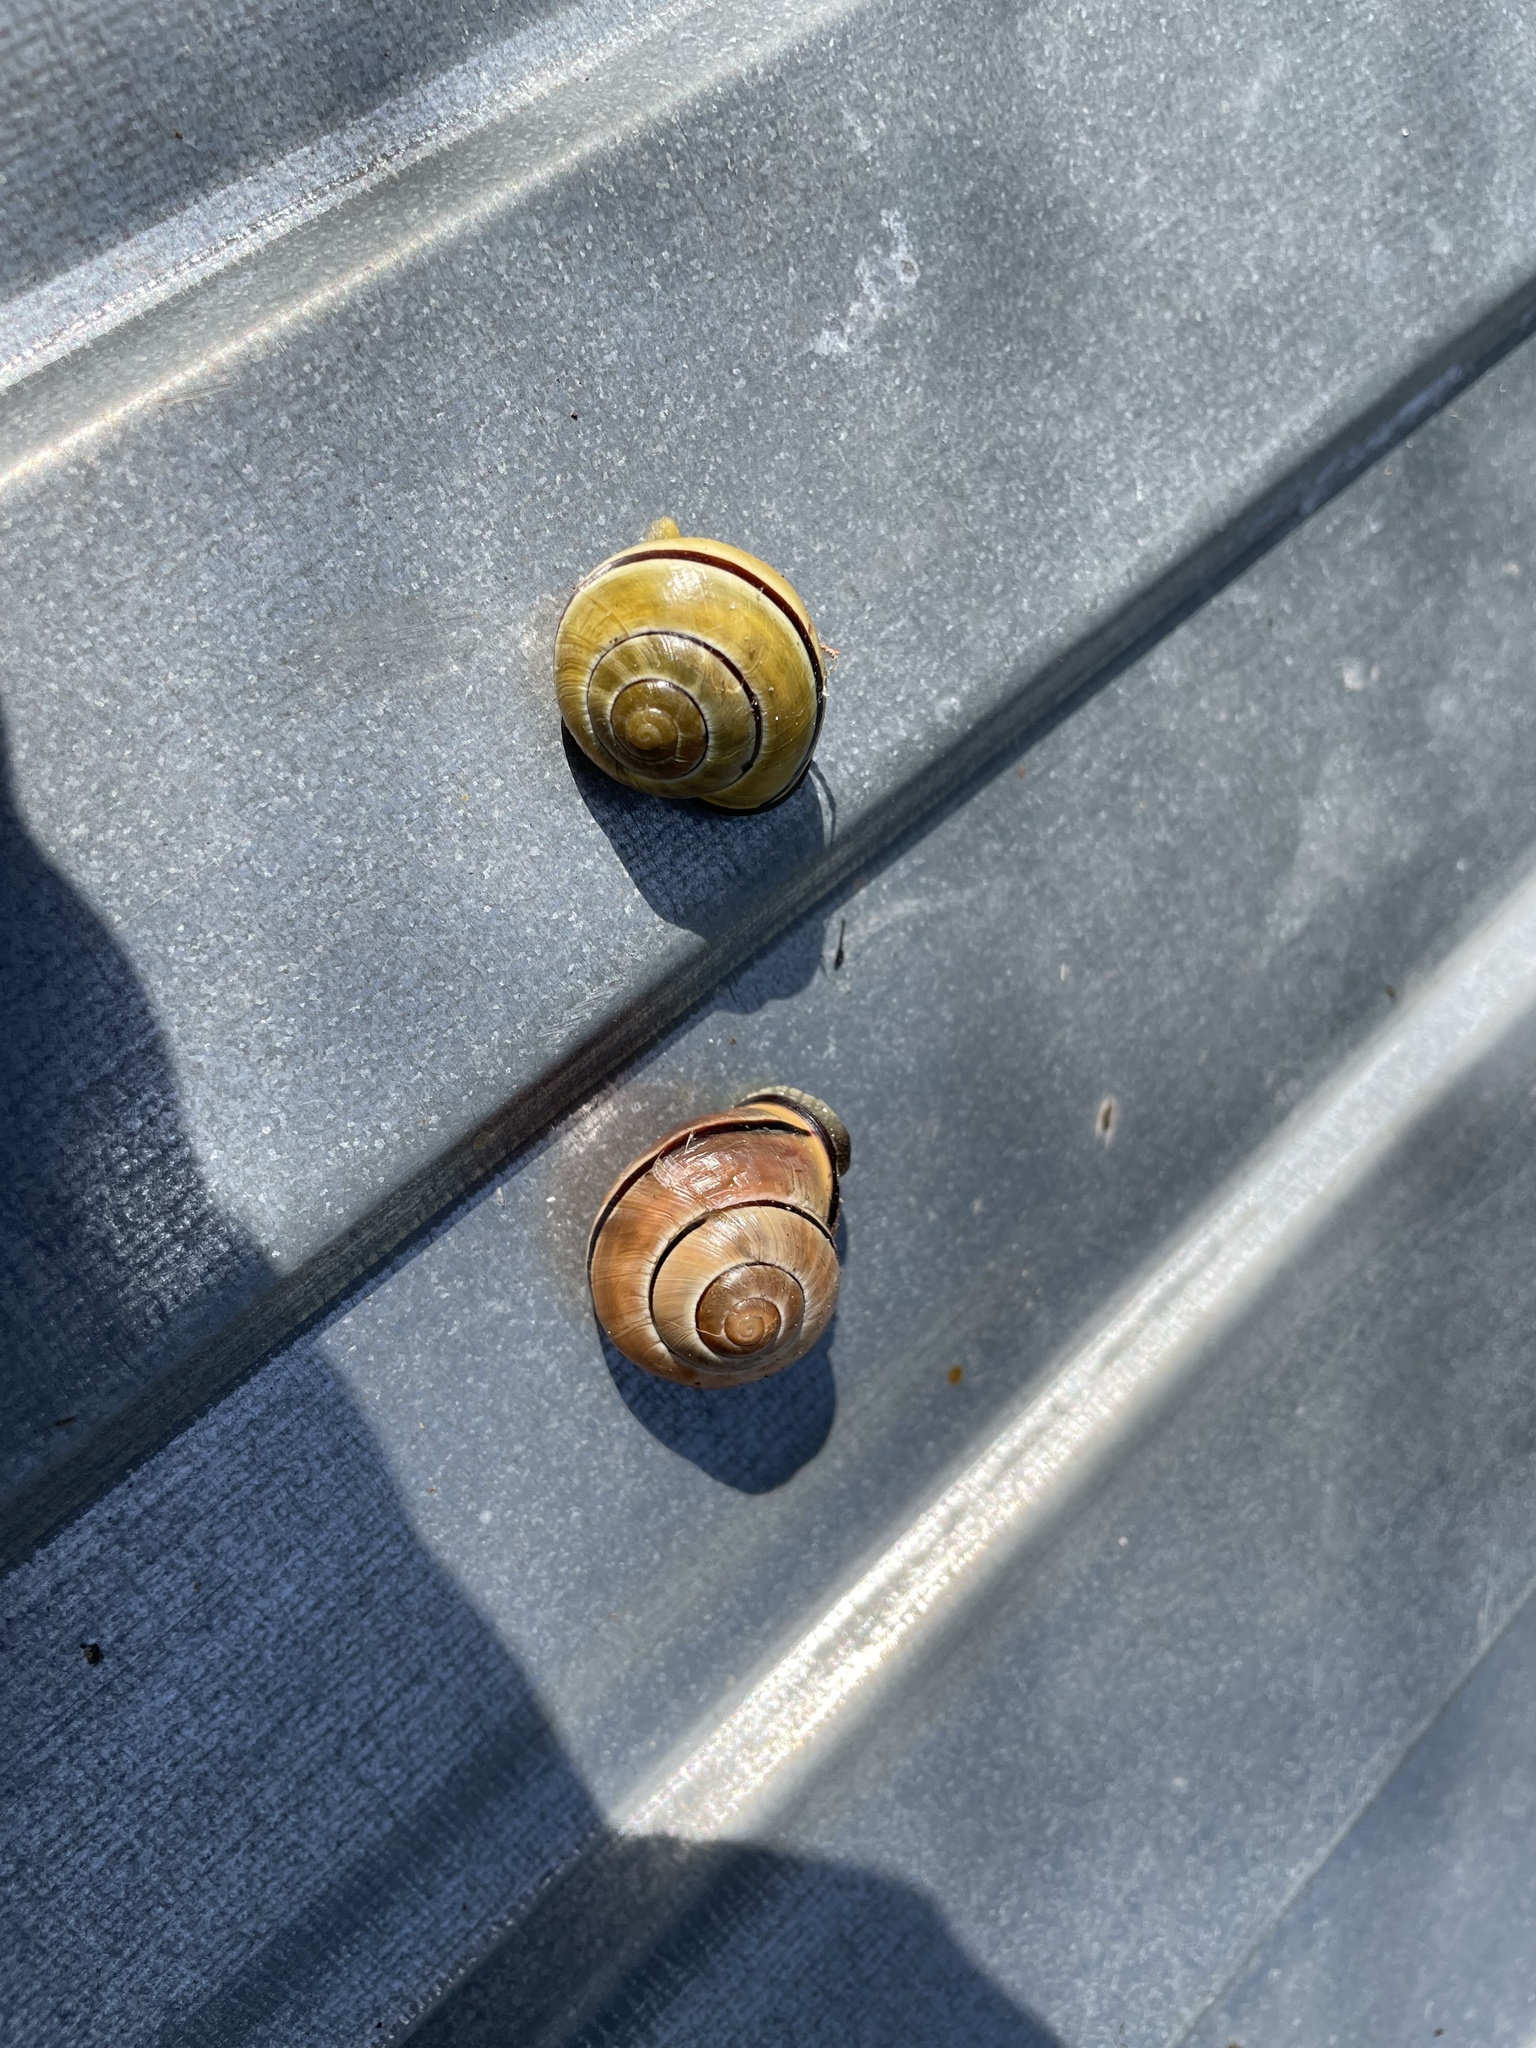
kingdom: Animalia
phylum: Mollusca
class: Gastropoda
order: Stylommatophora
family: Helicidae
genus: Cepaea
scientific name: Cepaea nemoralis
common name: Grovesnail
